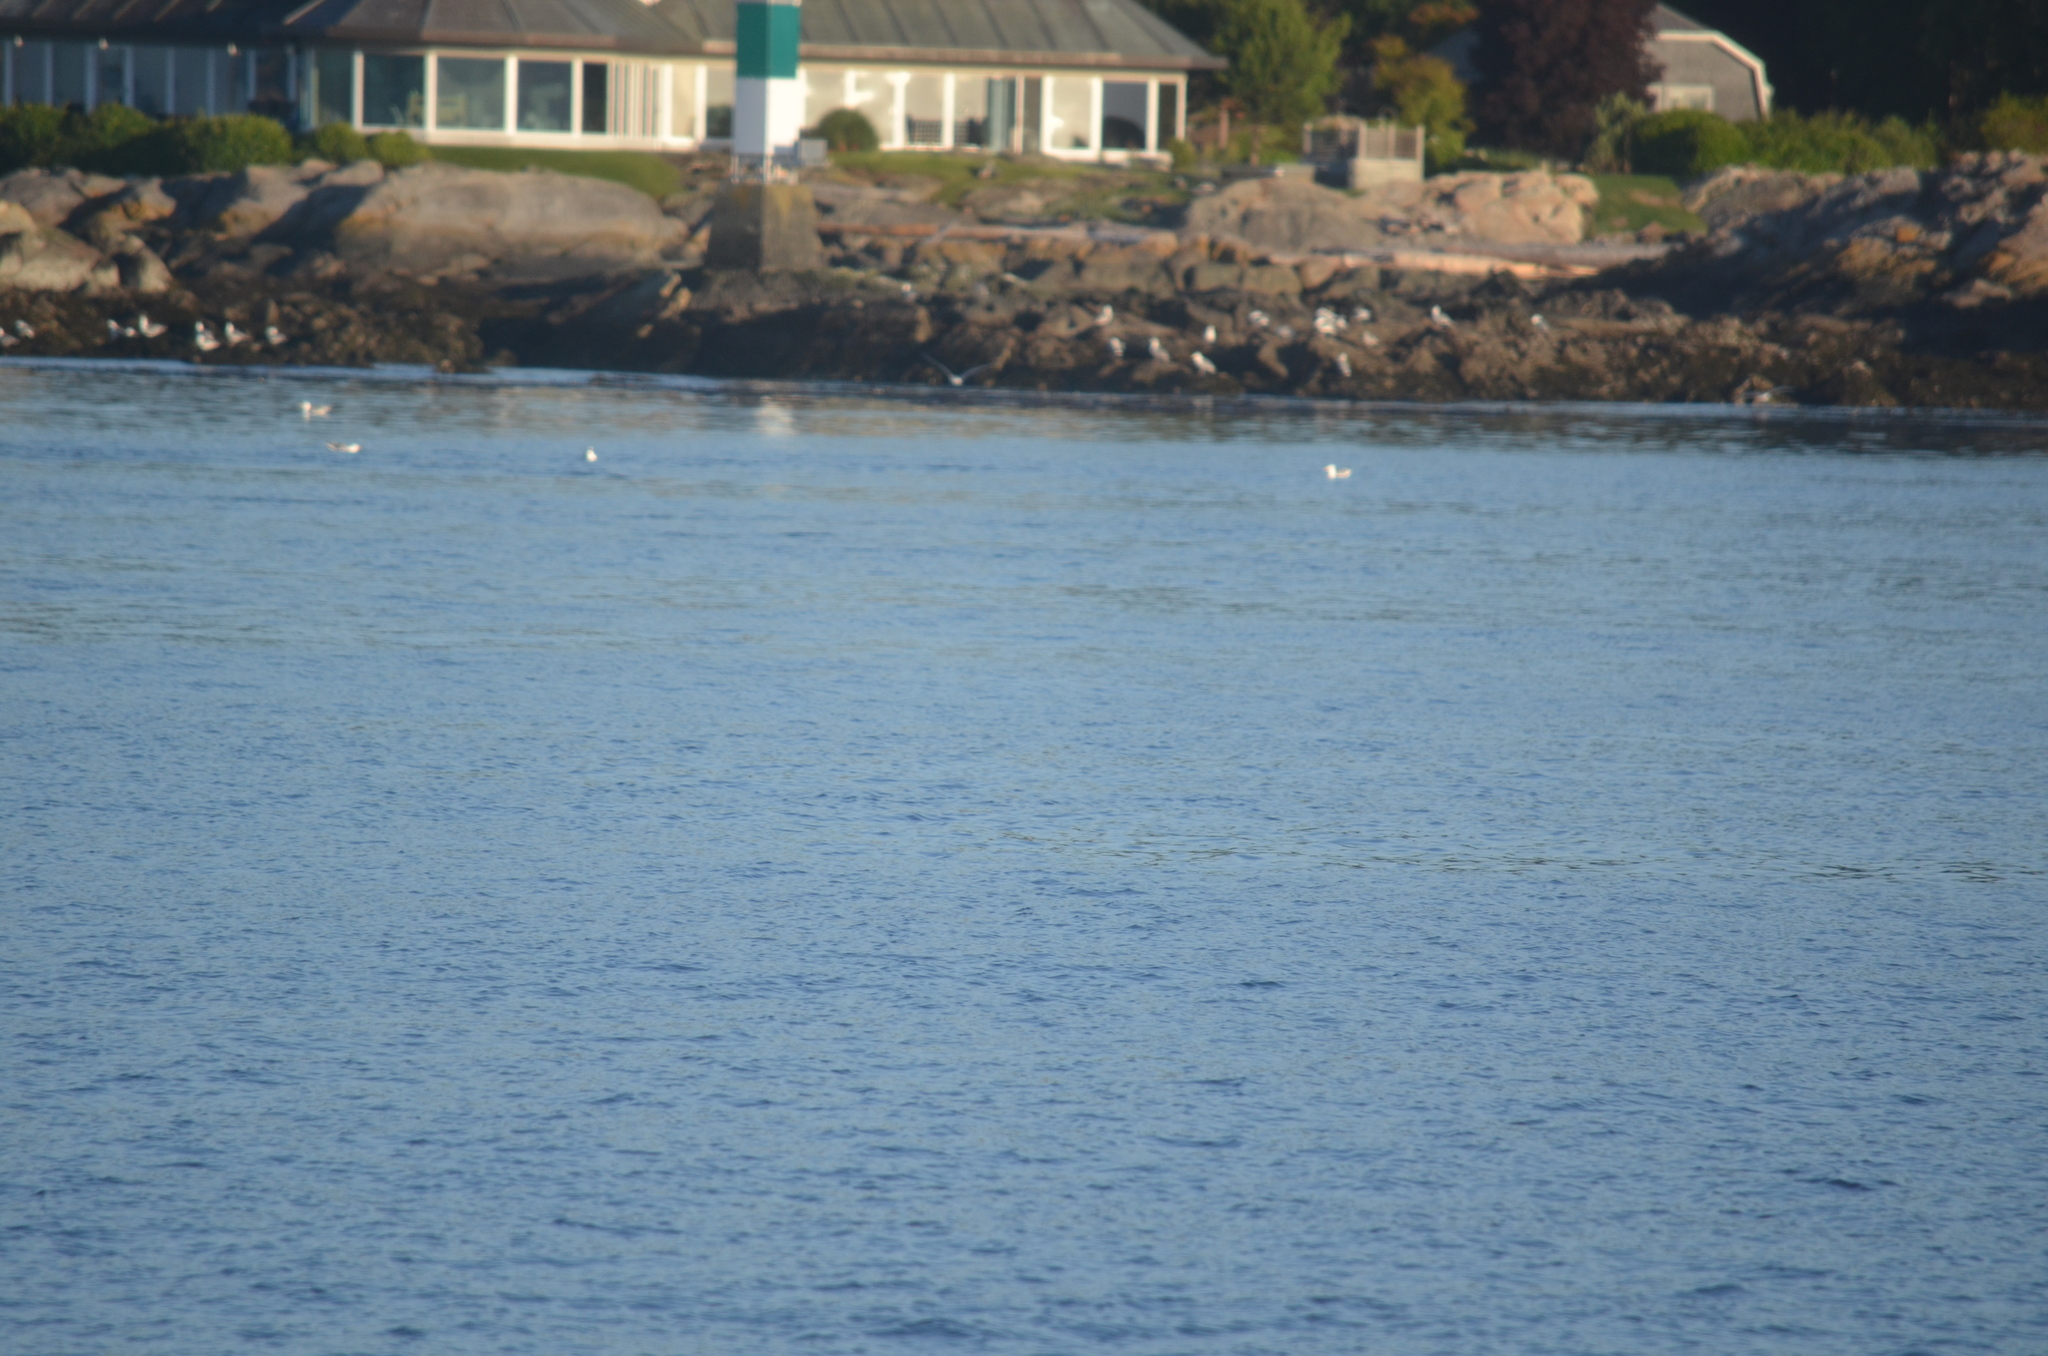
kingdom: Animalia
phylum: Chordata
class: Aves
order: Charadriiformes
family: Laridae
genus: Larus
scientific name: Larus glaucescens
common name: Glaucous-winged gull
